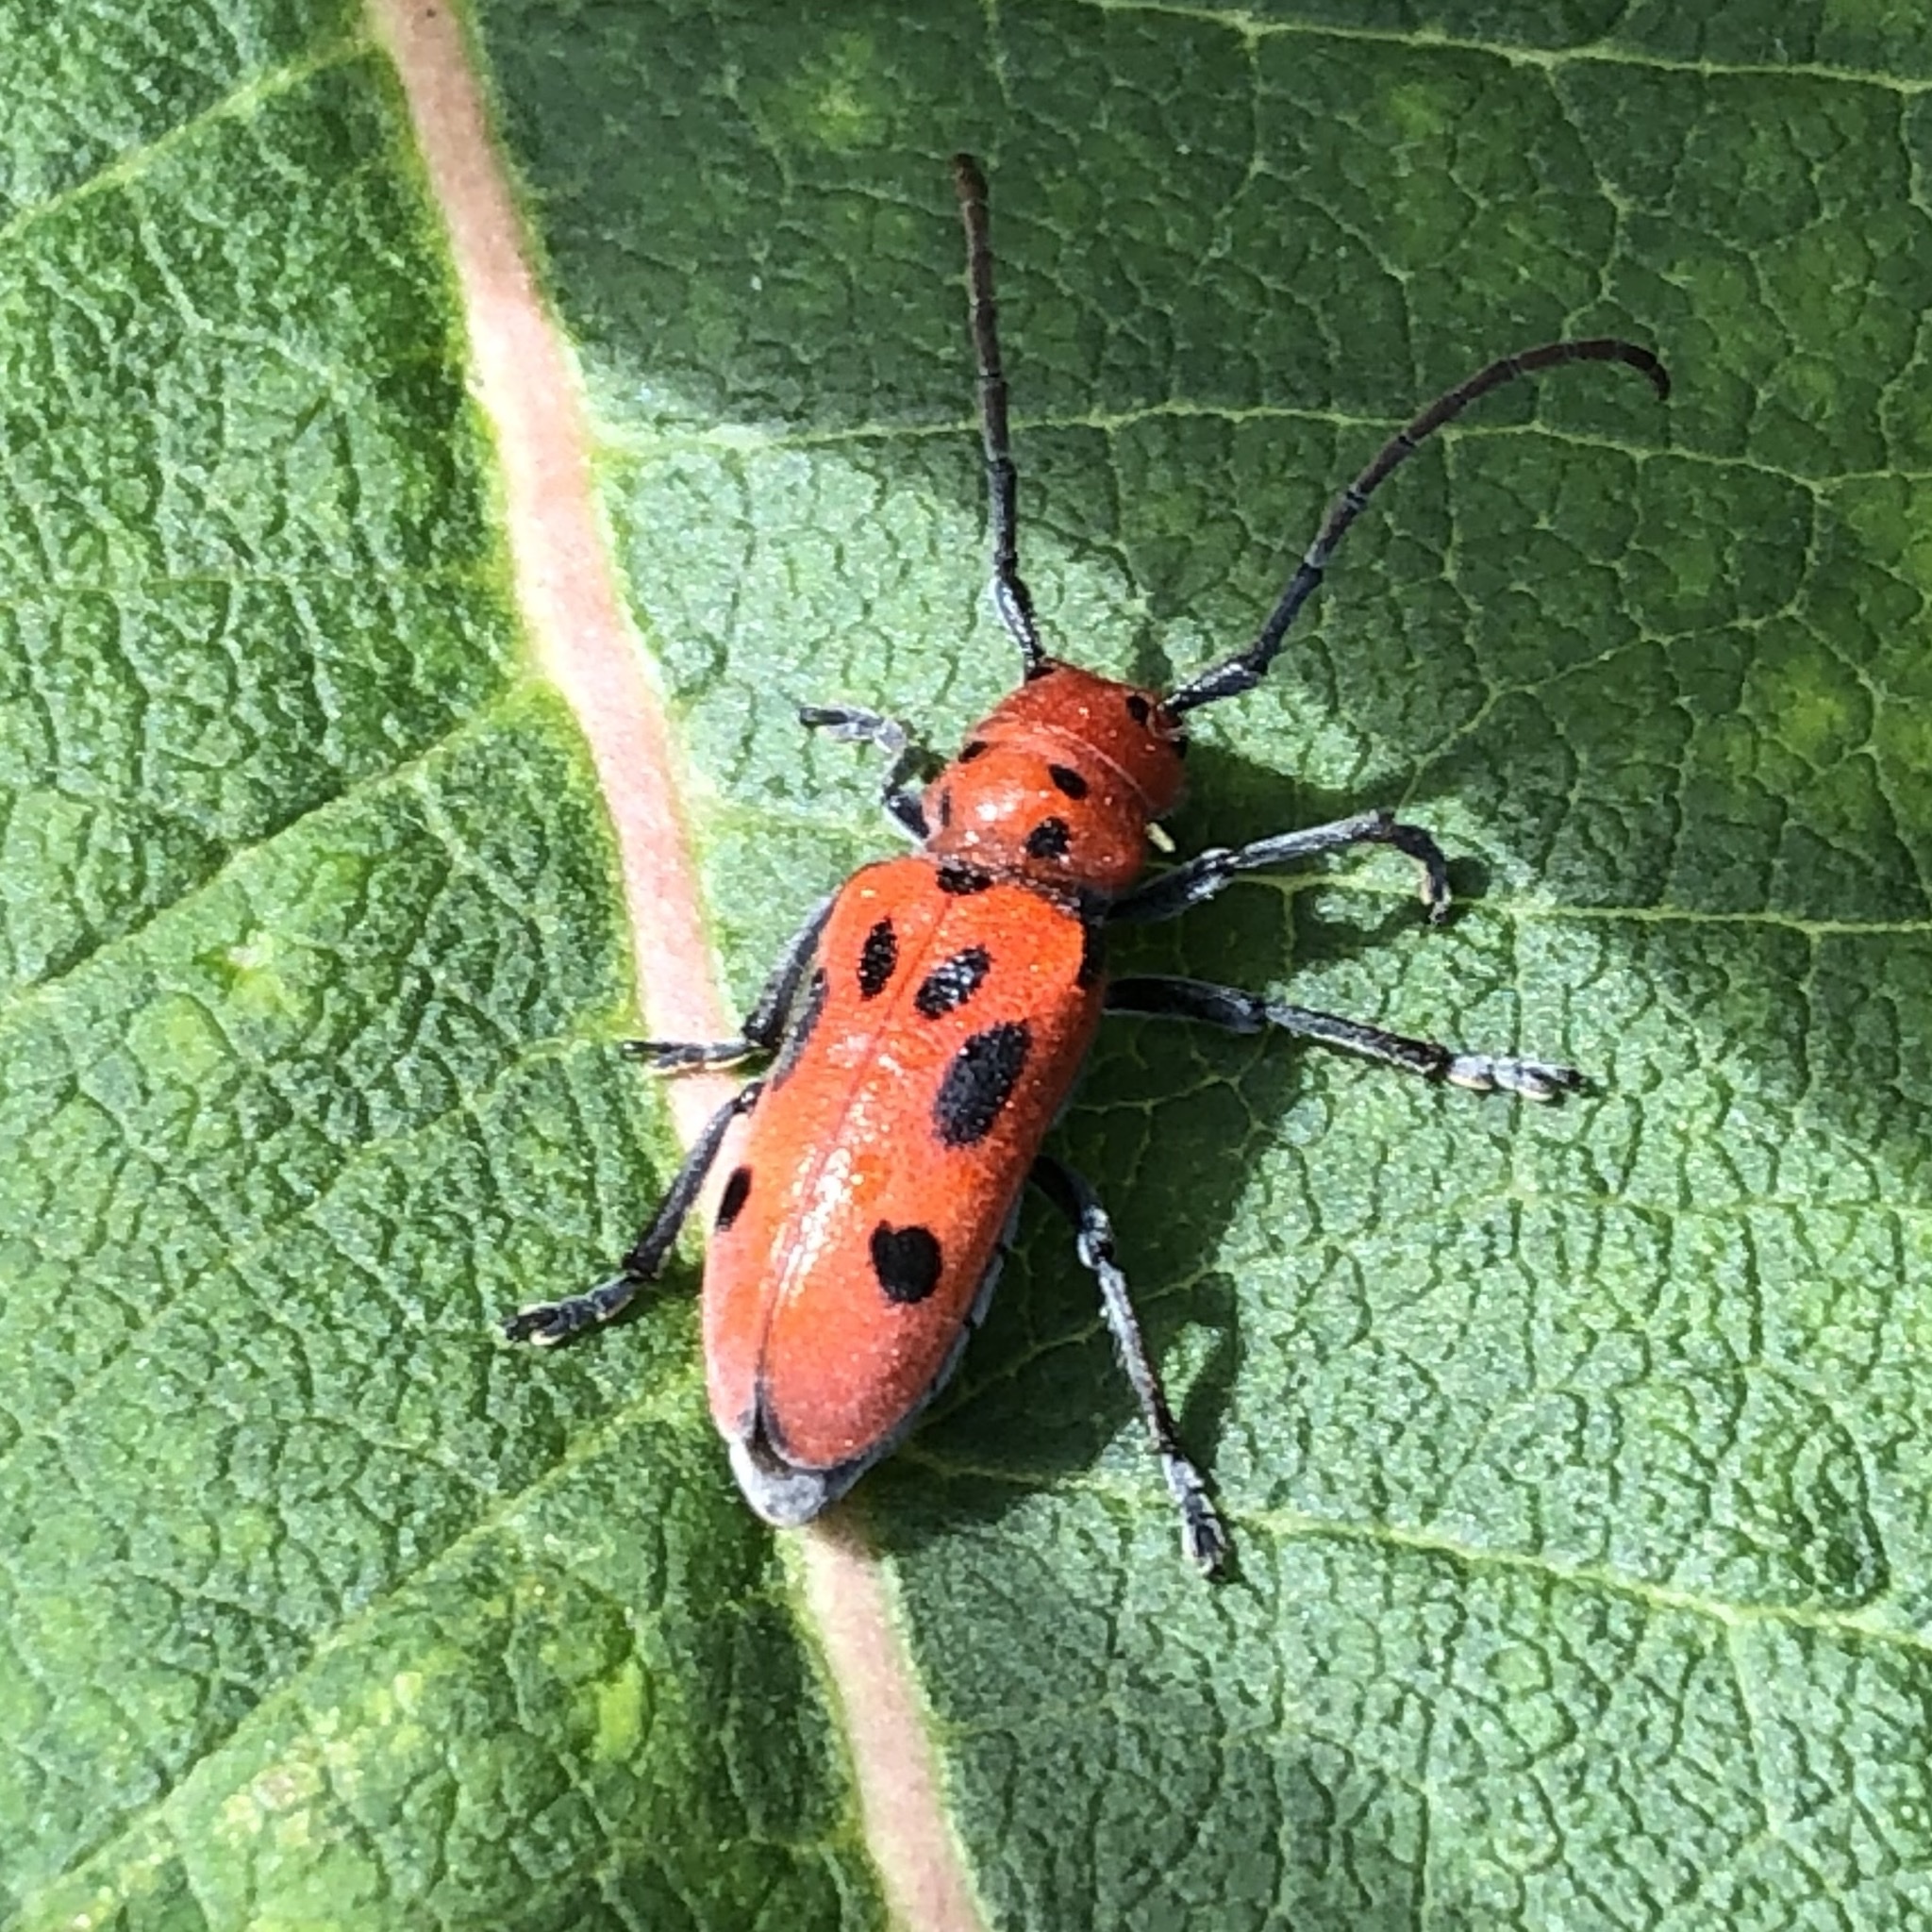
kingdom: Animalia
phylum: Arthropoda
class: Insecta
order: Coleoptera
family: Cerambycidae
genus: Tetraopes
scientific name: Tetraopes tetrophthalmus
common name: Red milkweed beetle
